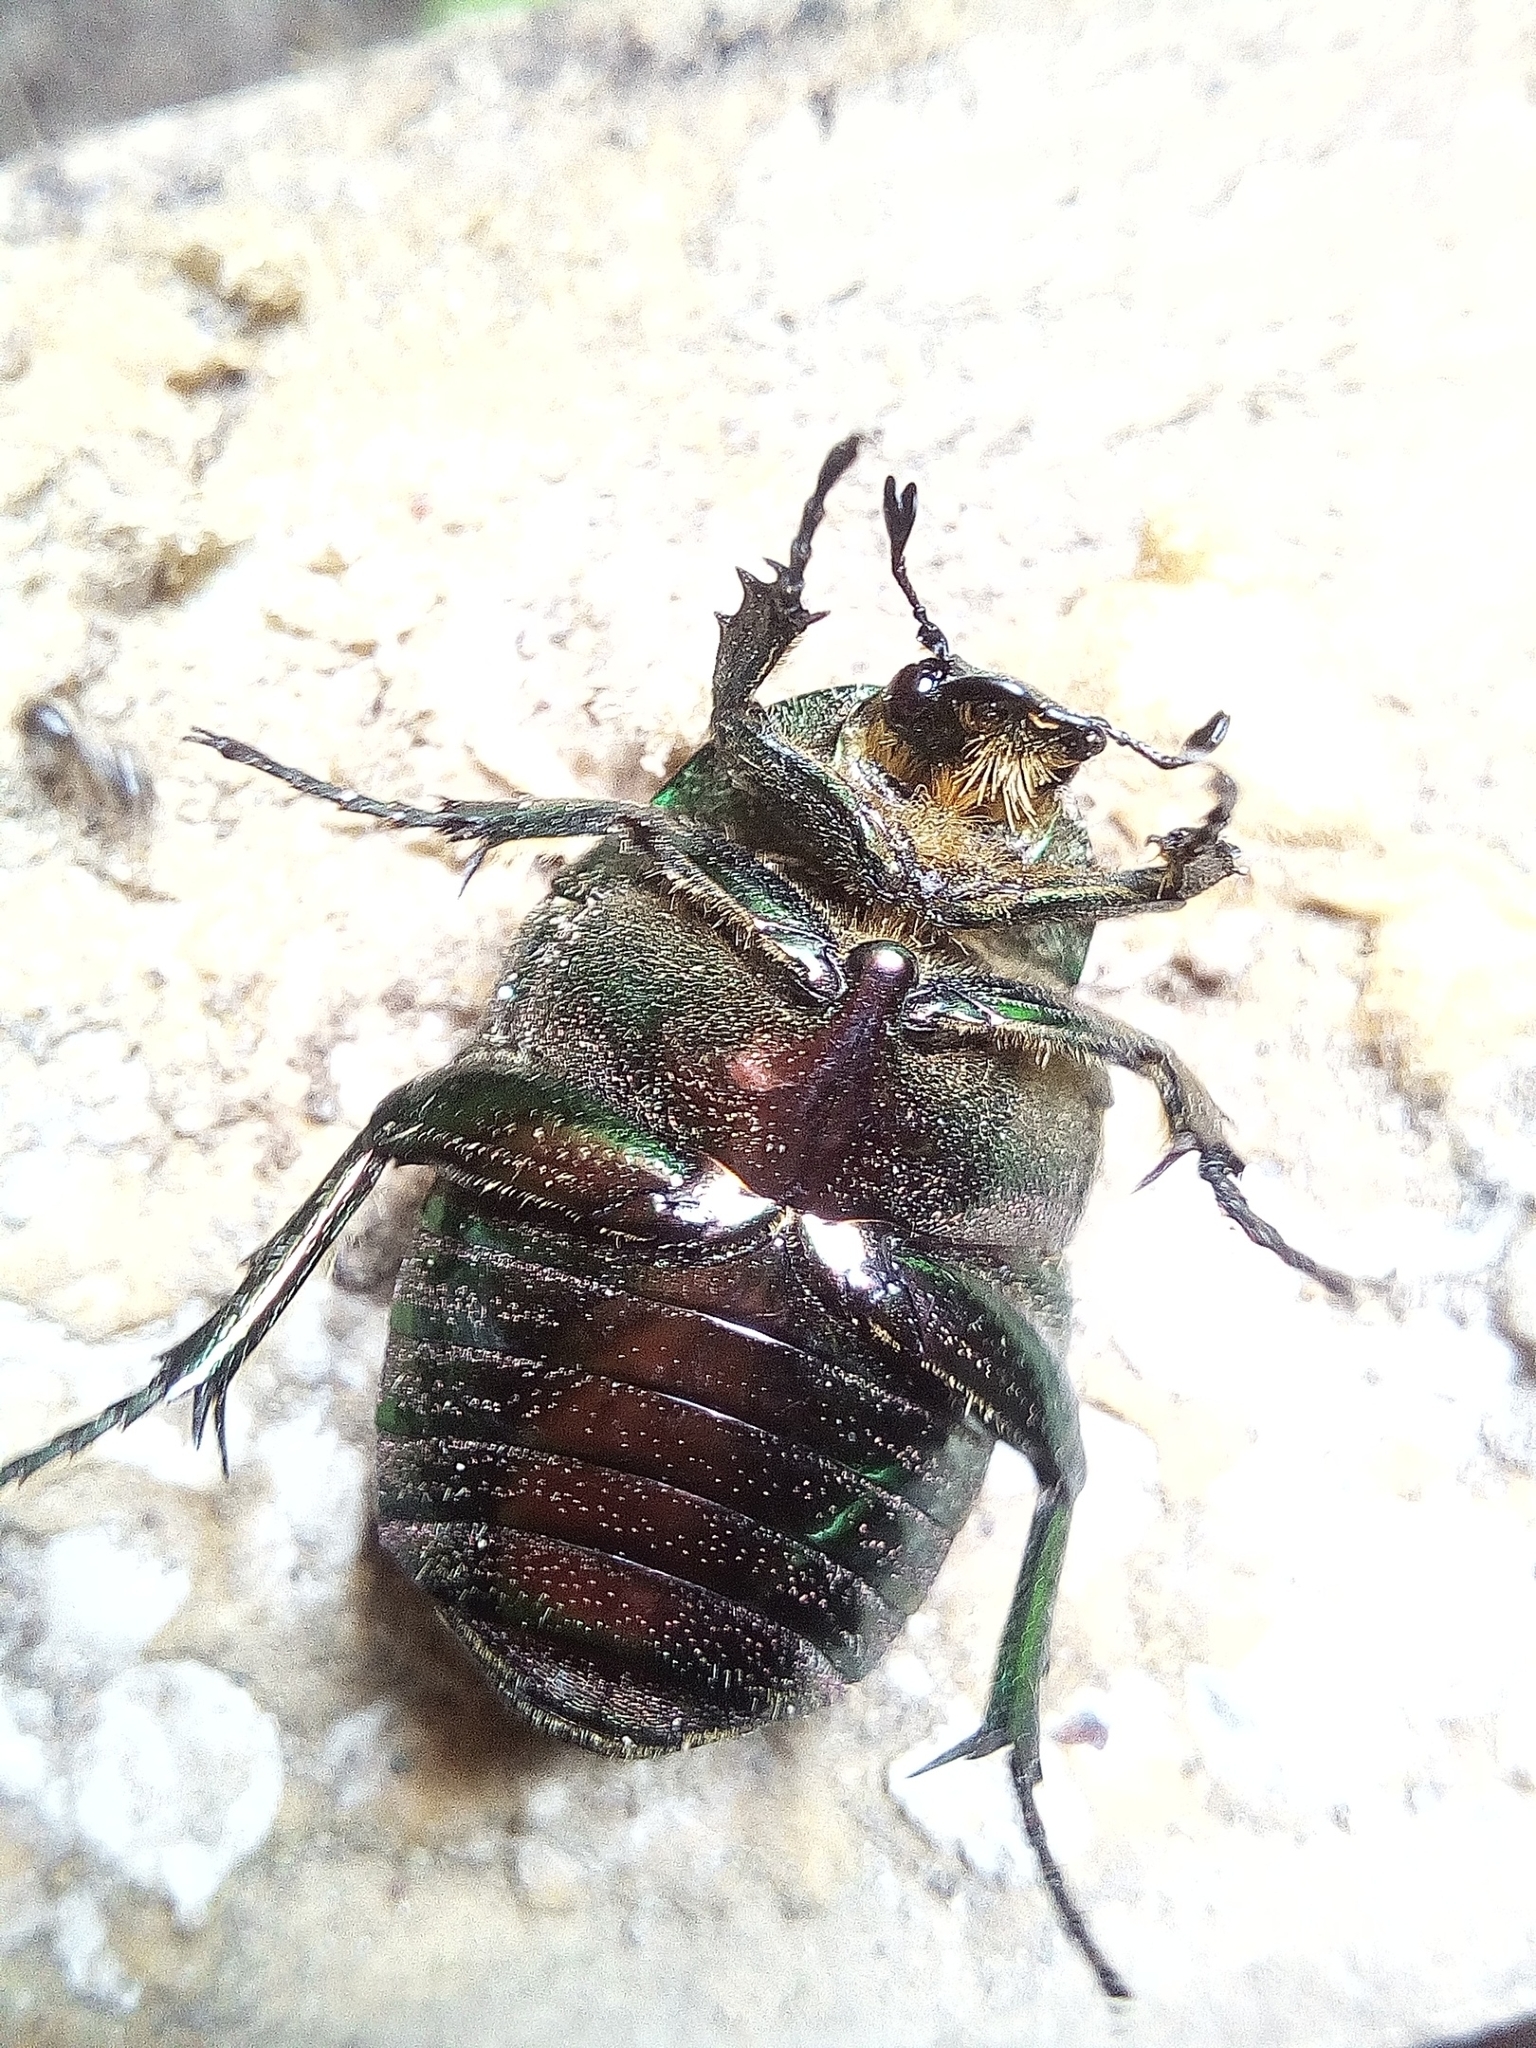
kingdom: Animalia
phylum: Arthropoda
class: Insecta
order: Coleoptera
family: Scarabaeidae
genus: Cetonia
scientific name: Cetonia aurata
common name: Rose chafer
